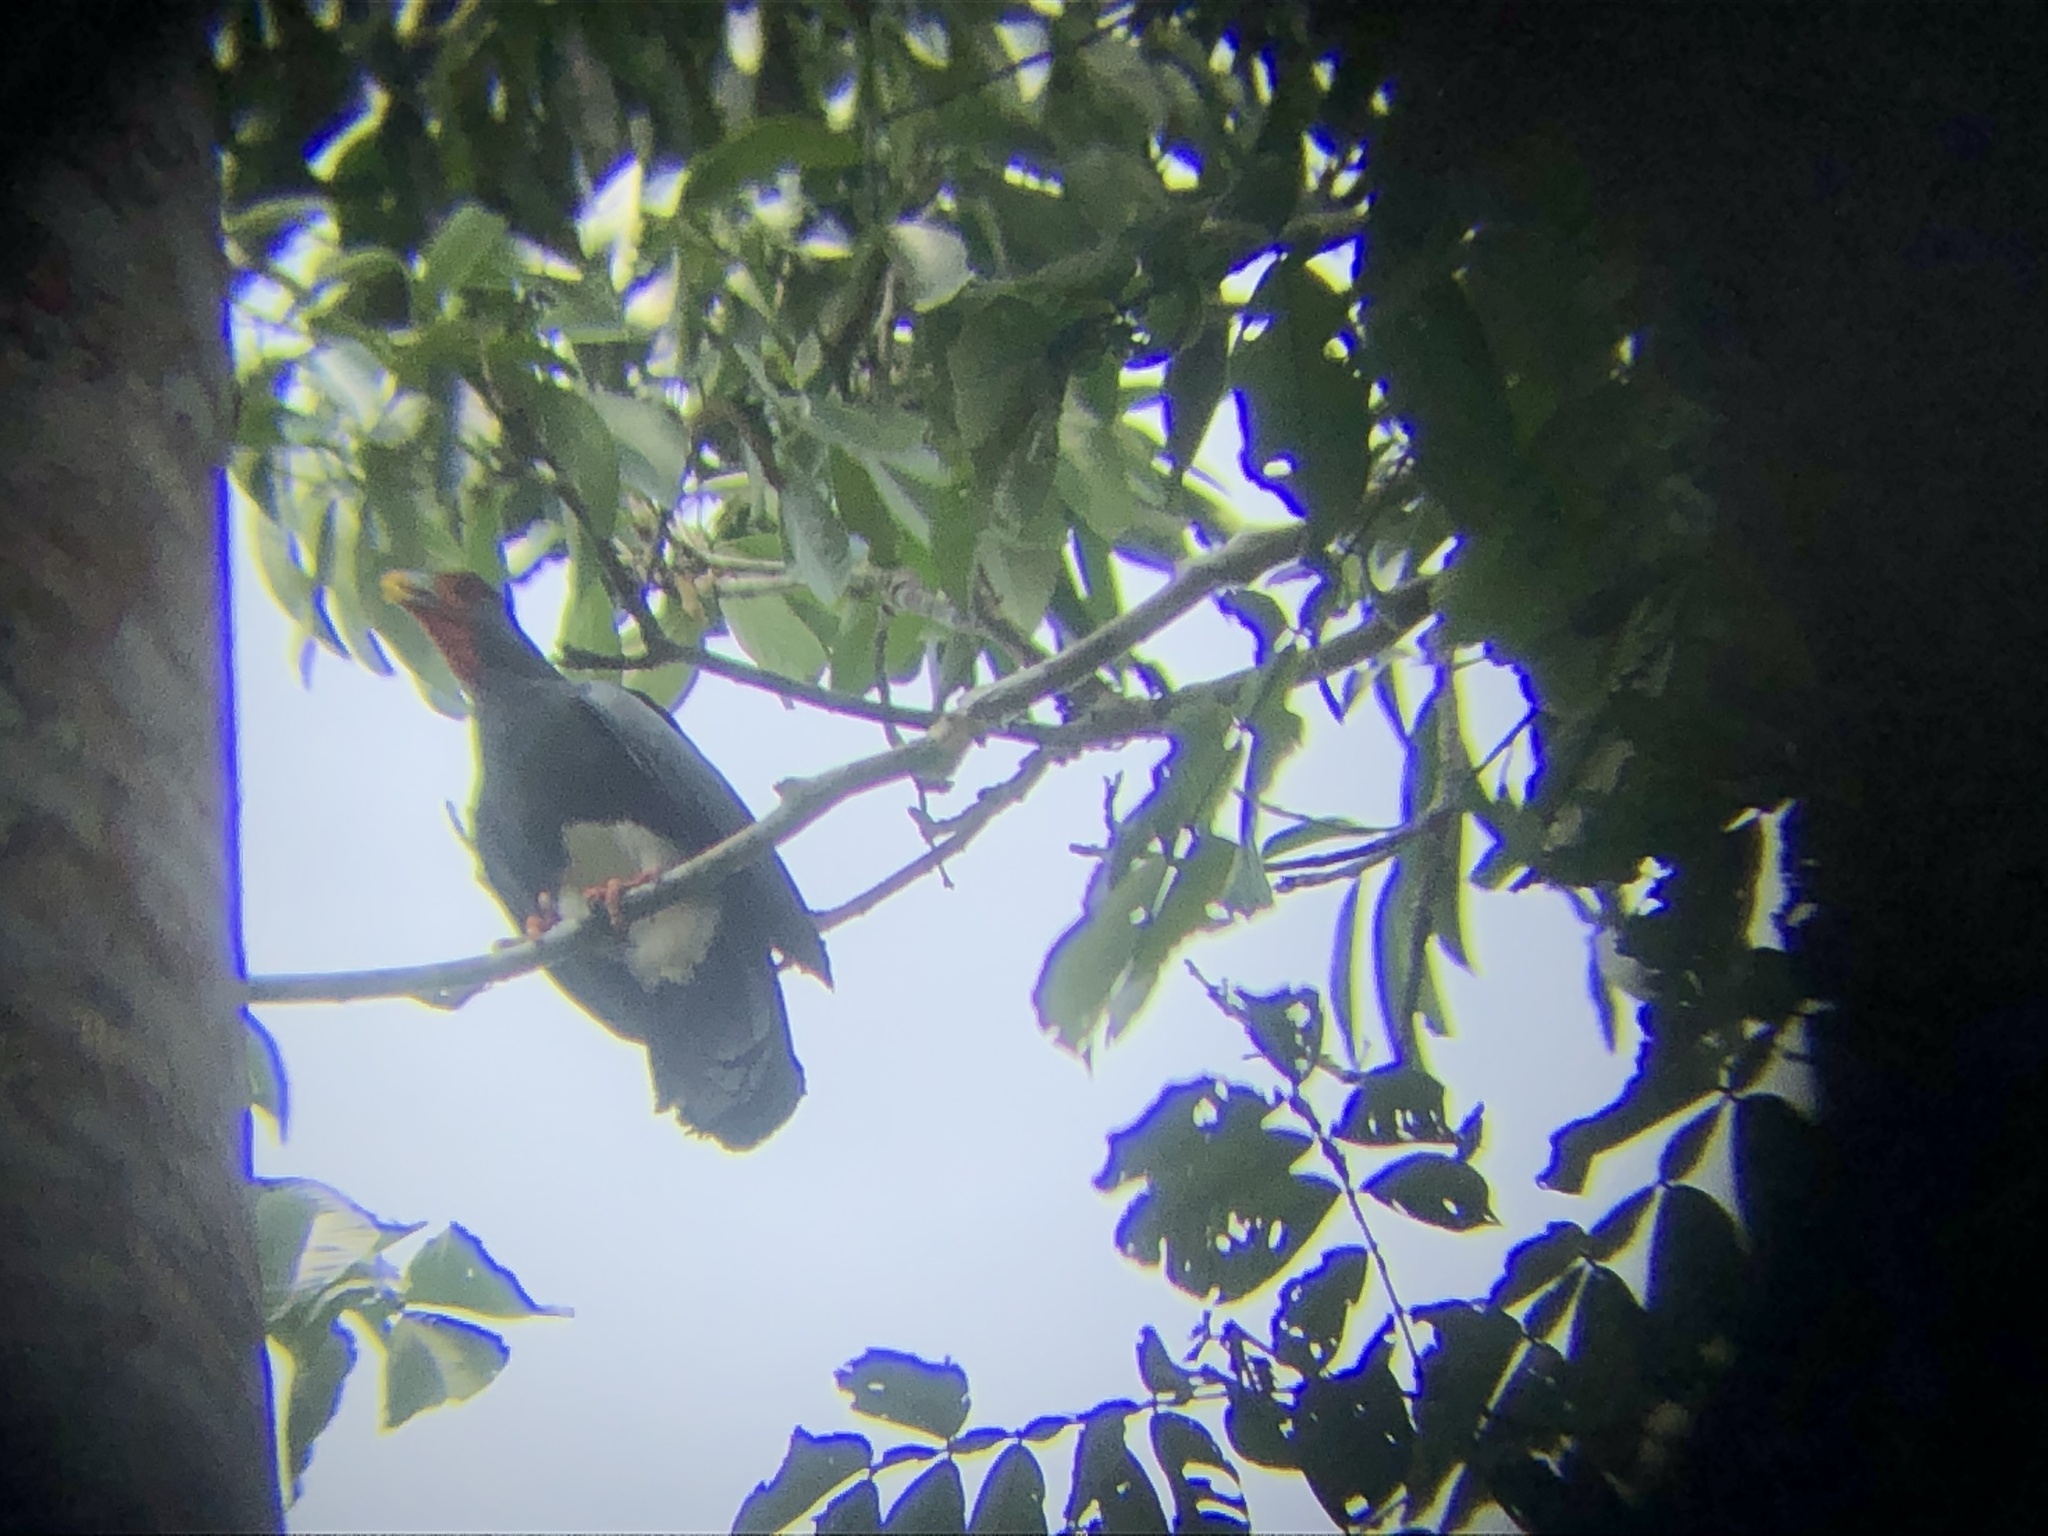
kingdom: Animalia
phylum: Chordata
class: Aves
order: Falconiformes
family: Falconidae
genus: Ibycter
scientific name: Ibycter americanus
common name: Red-throated caracara
